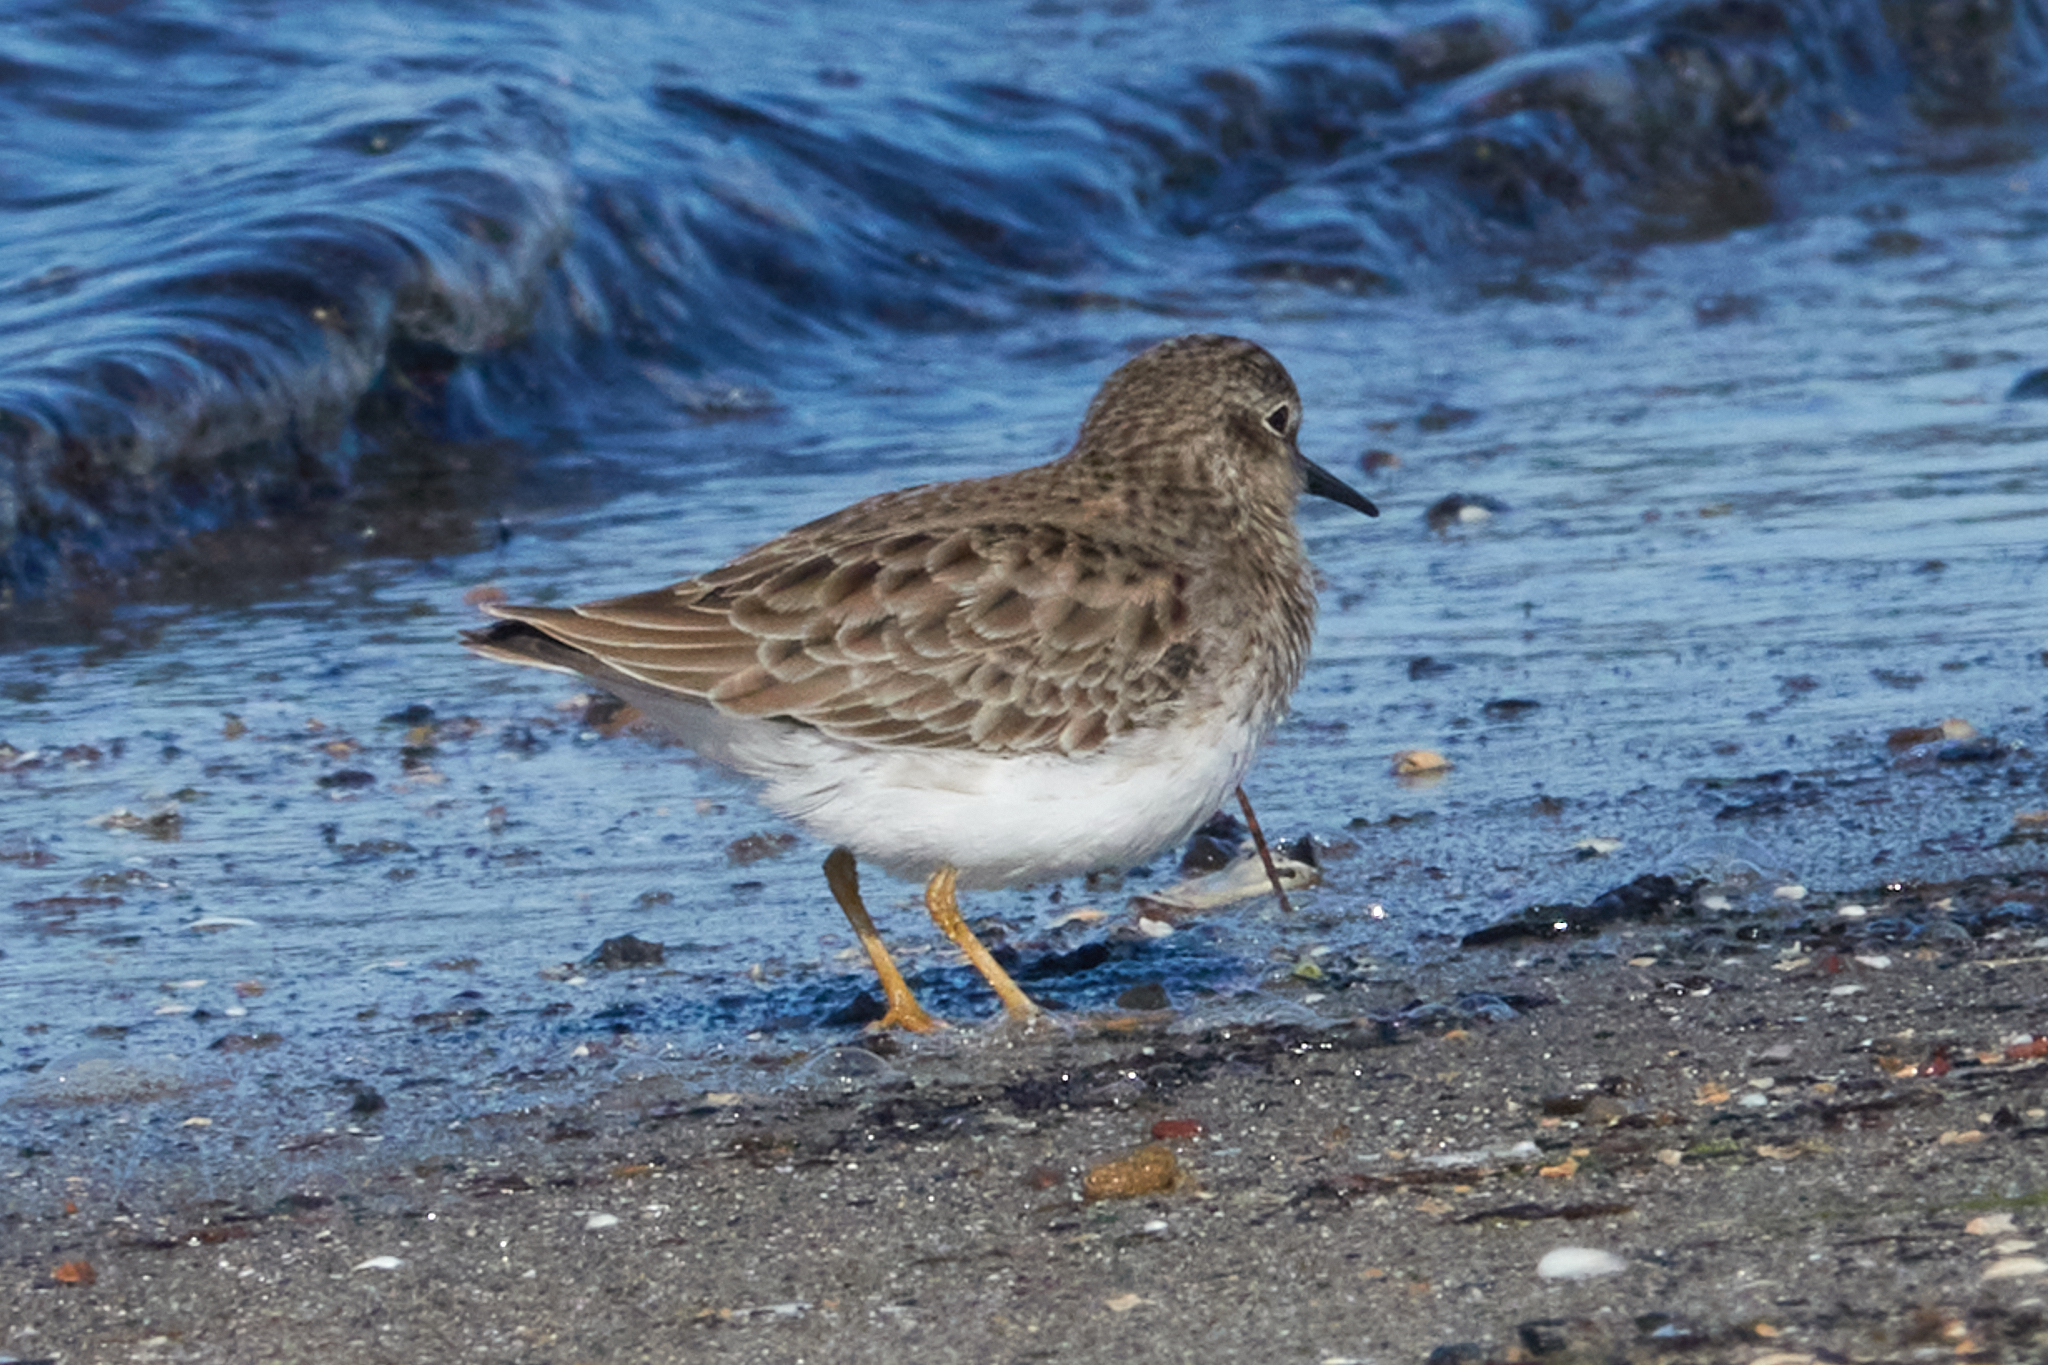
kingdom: Animalia
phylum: Chordata
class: Aves
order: Charadriiformes
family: Scolopacidae
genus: Calidris
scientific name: Calidris minutilla
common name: Least sandpiper
